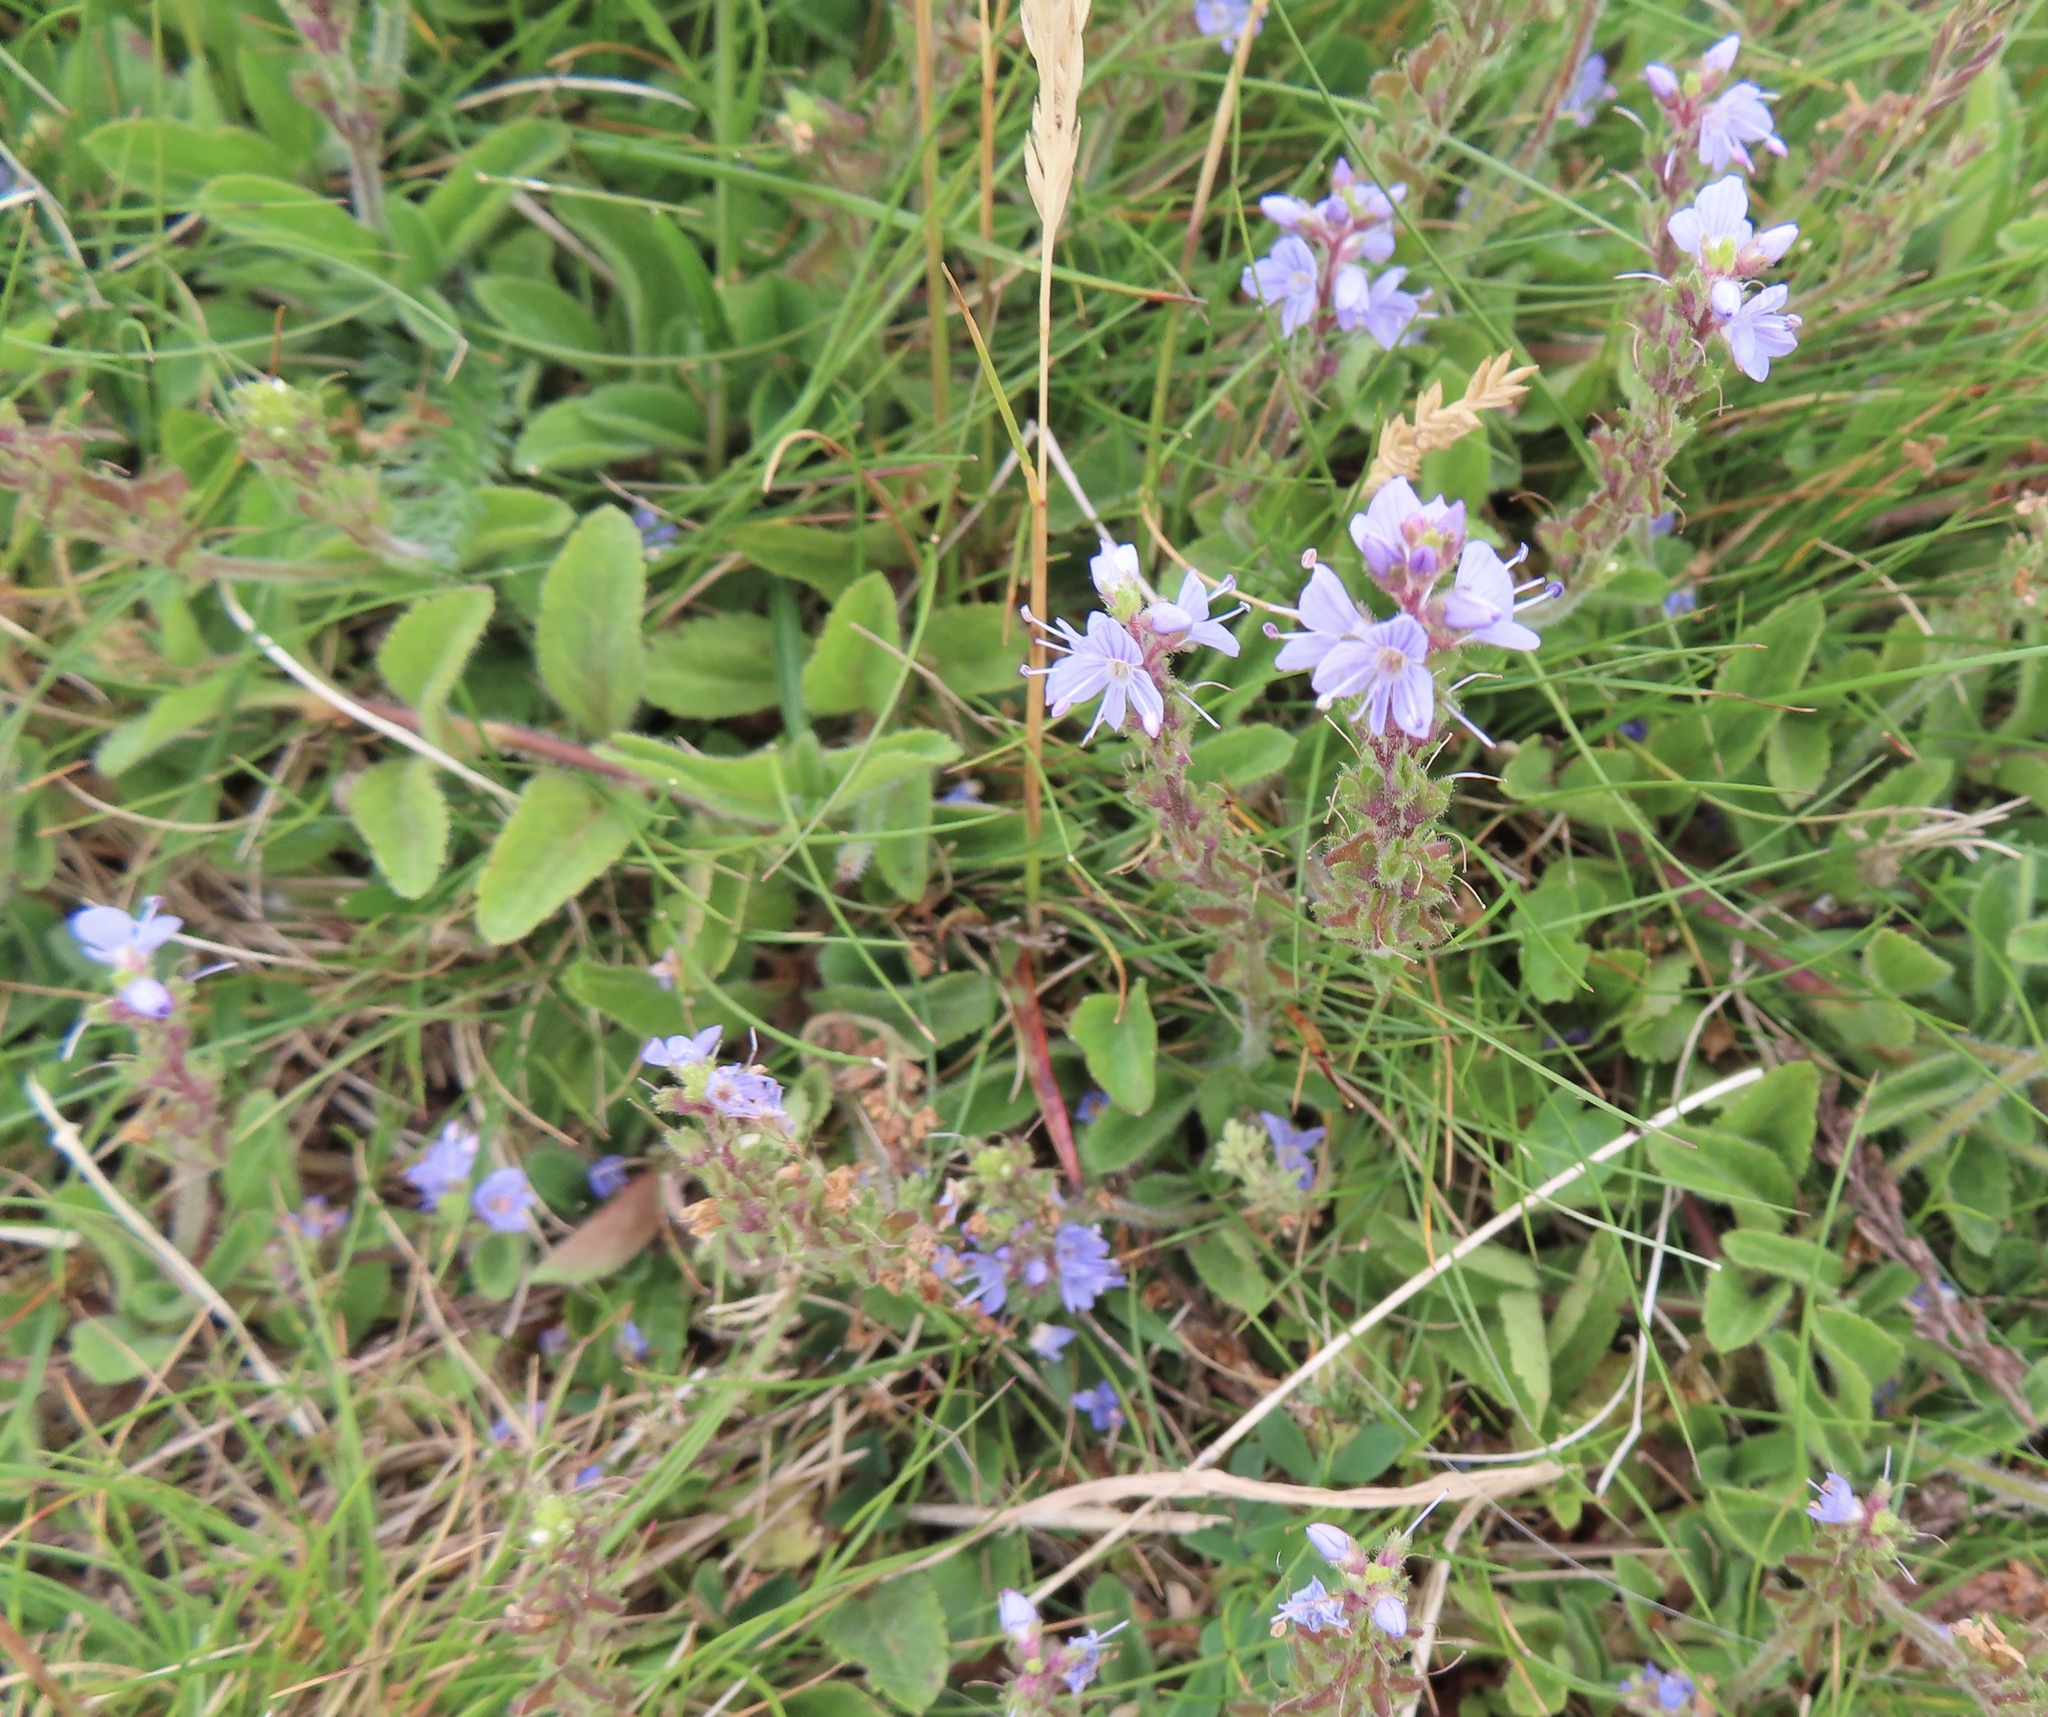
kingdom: Plantae
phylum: Tracheophyta
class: Magnoliopsida
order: Lamiales
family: Plantaginaceae
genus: Veronica
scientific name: Veronica officinalis
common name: Common speedwell
